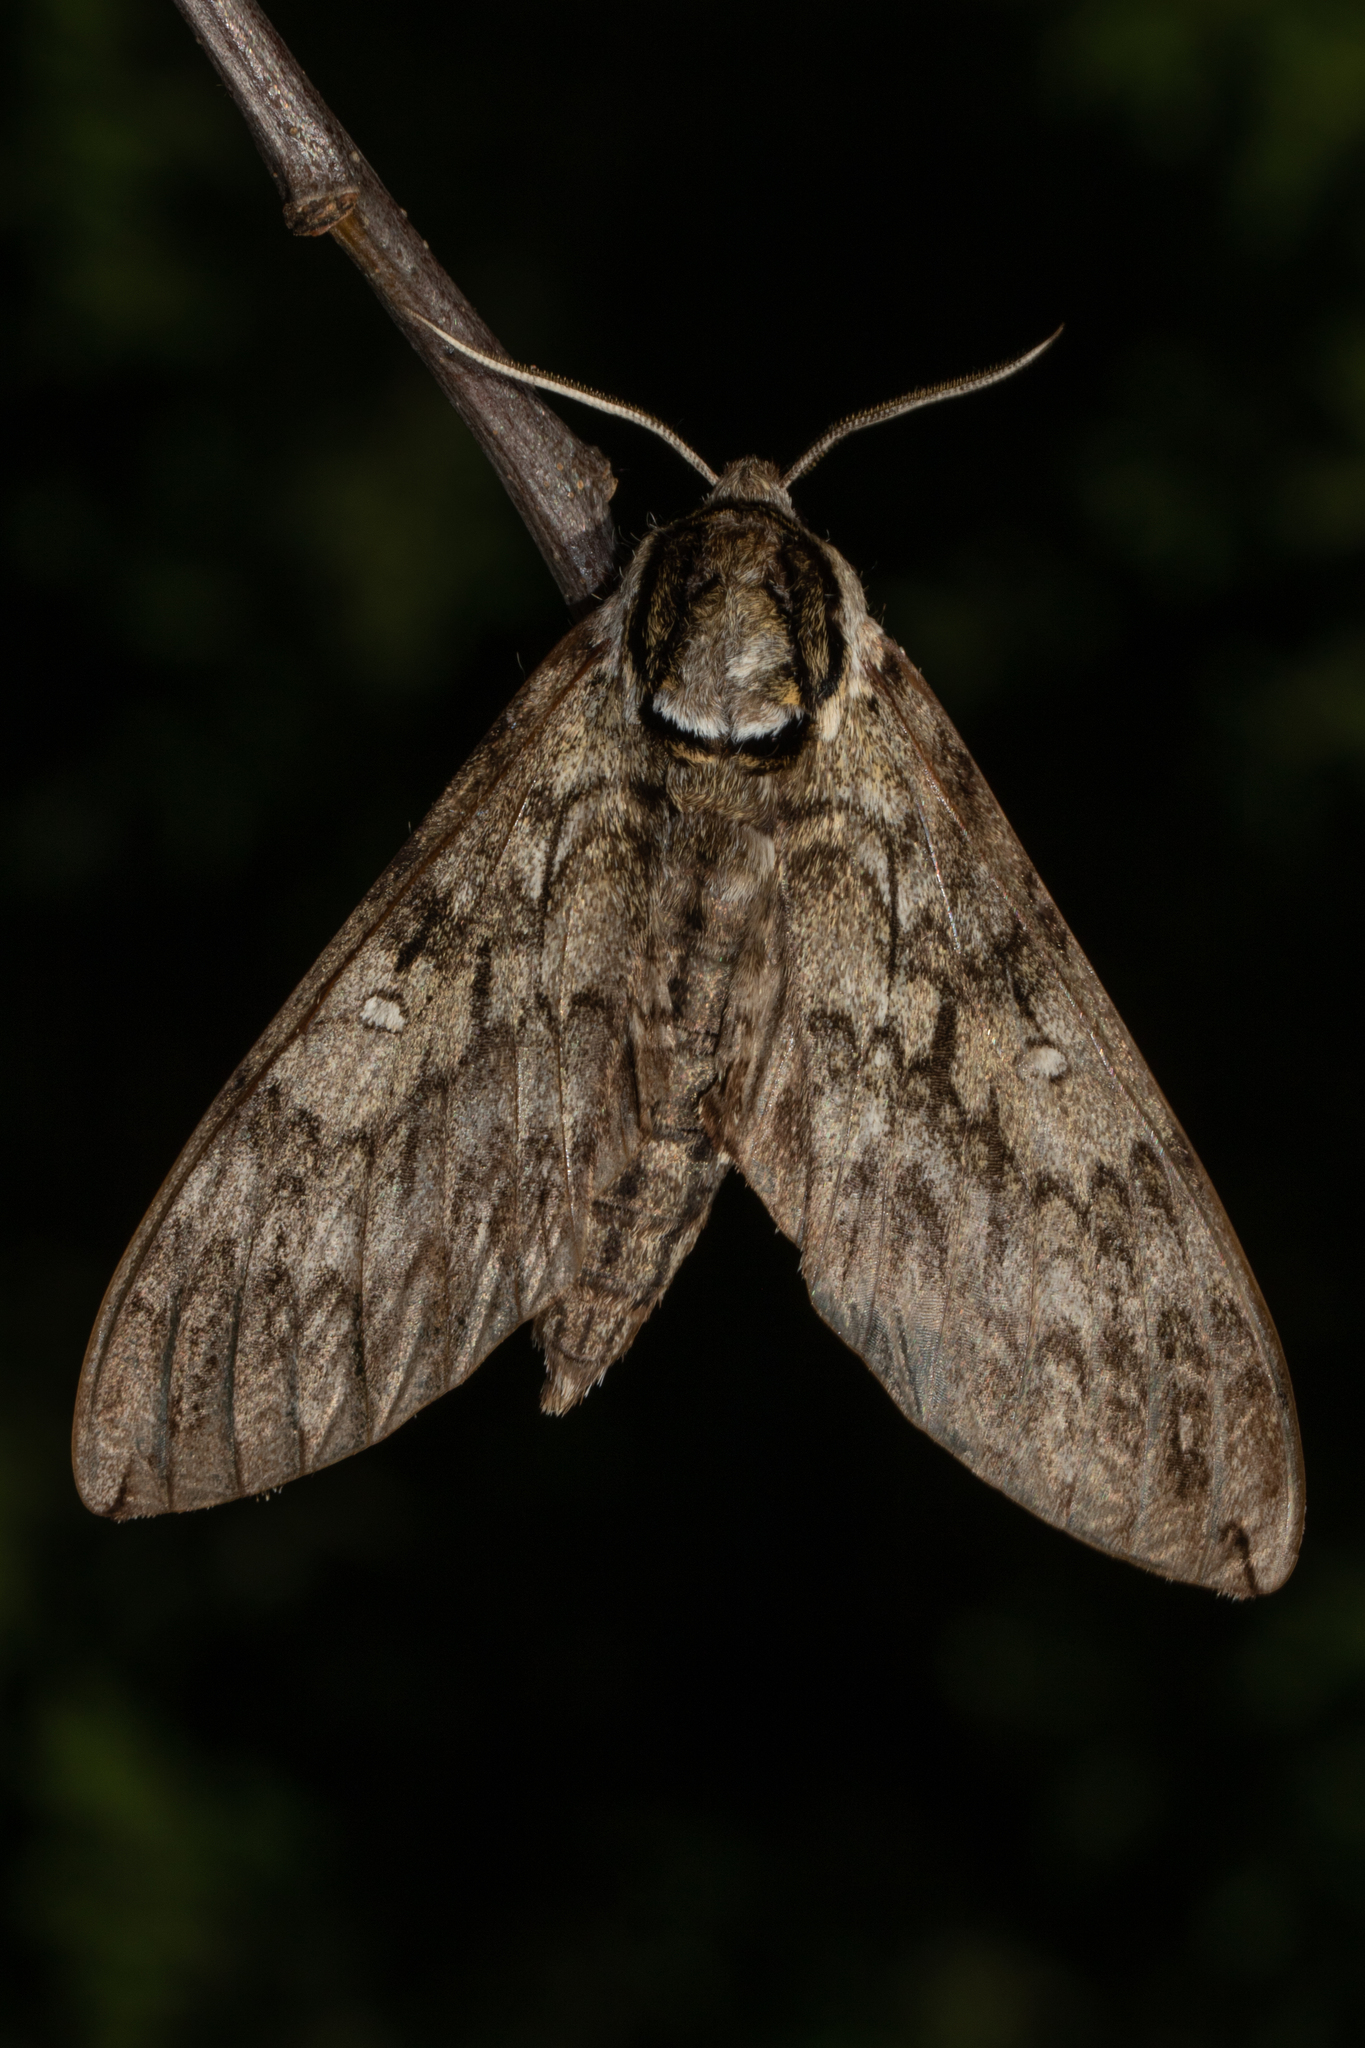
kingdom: Animalia
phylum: Arthropoda
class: Insecta
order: Lepidoptera
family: Sphingidae
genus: Ceratomia
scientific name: Ceratomia undulosa
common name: Waved sphinx
